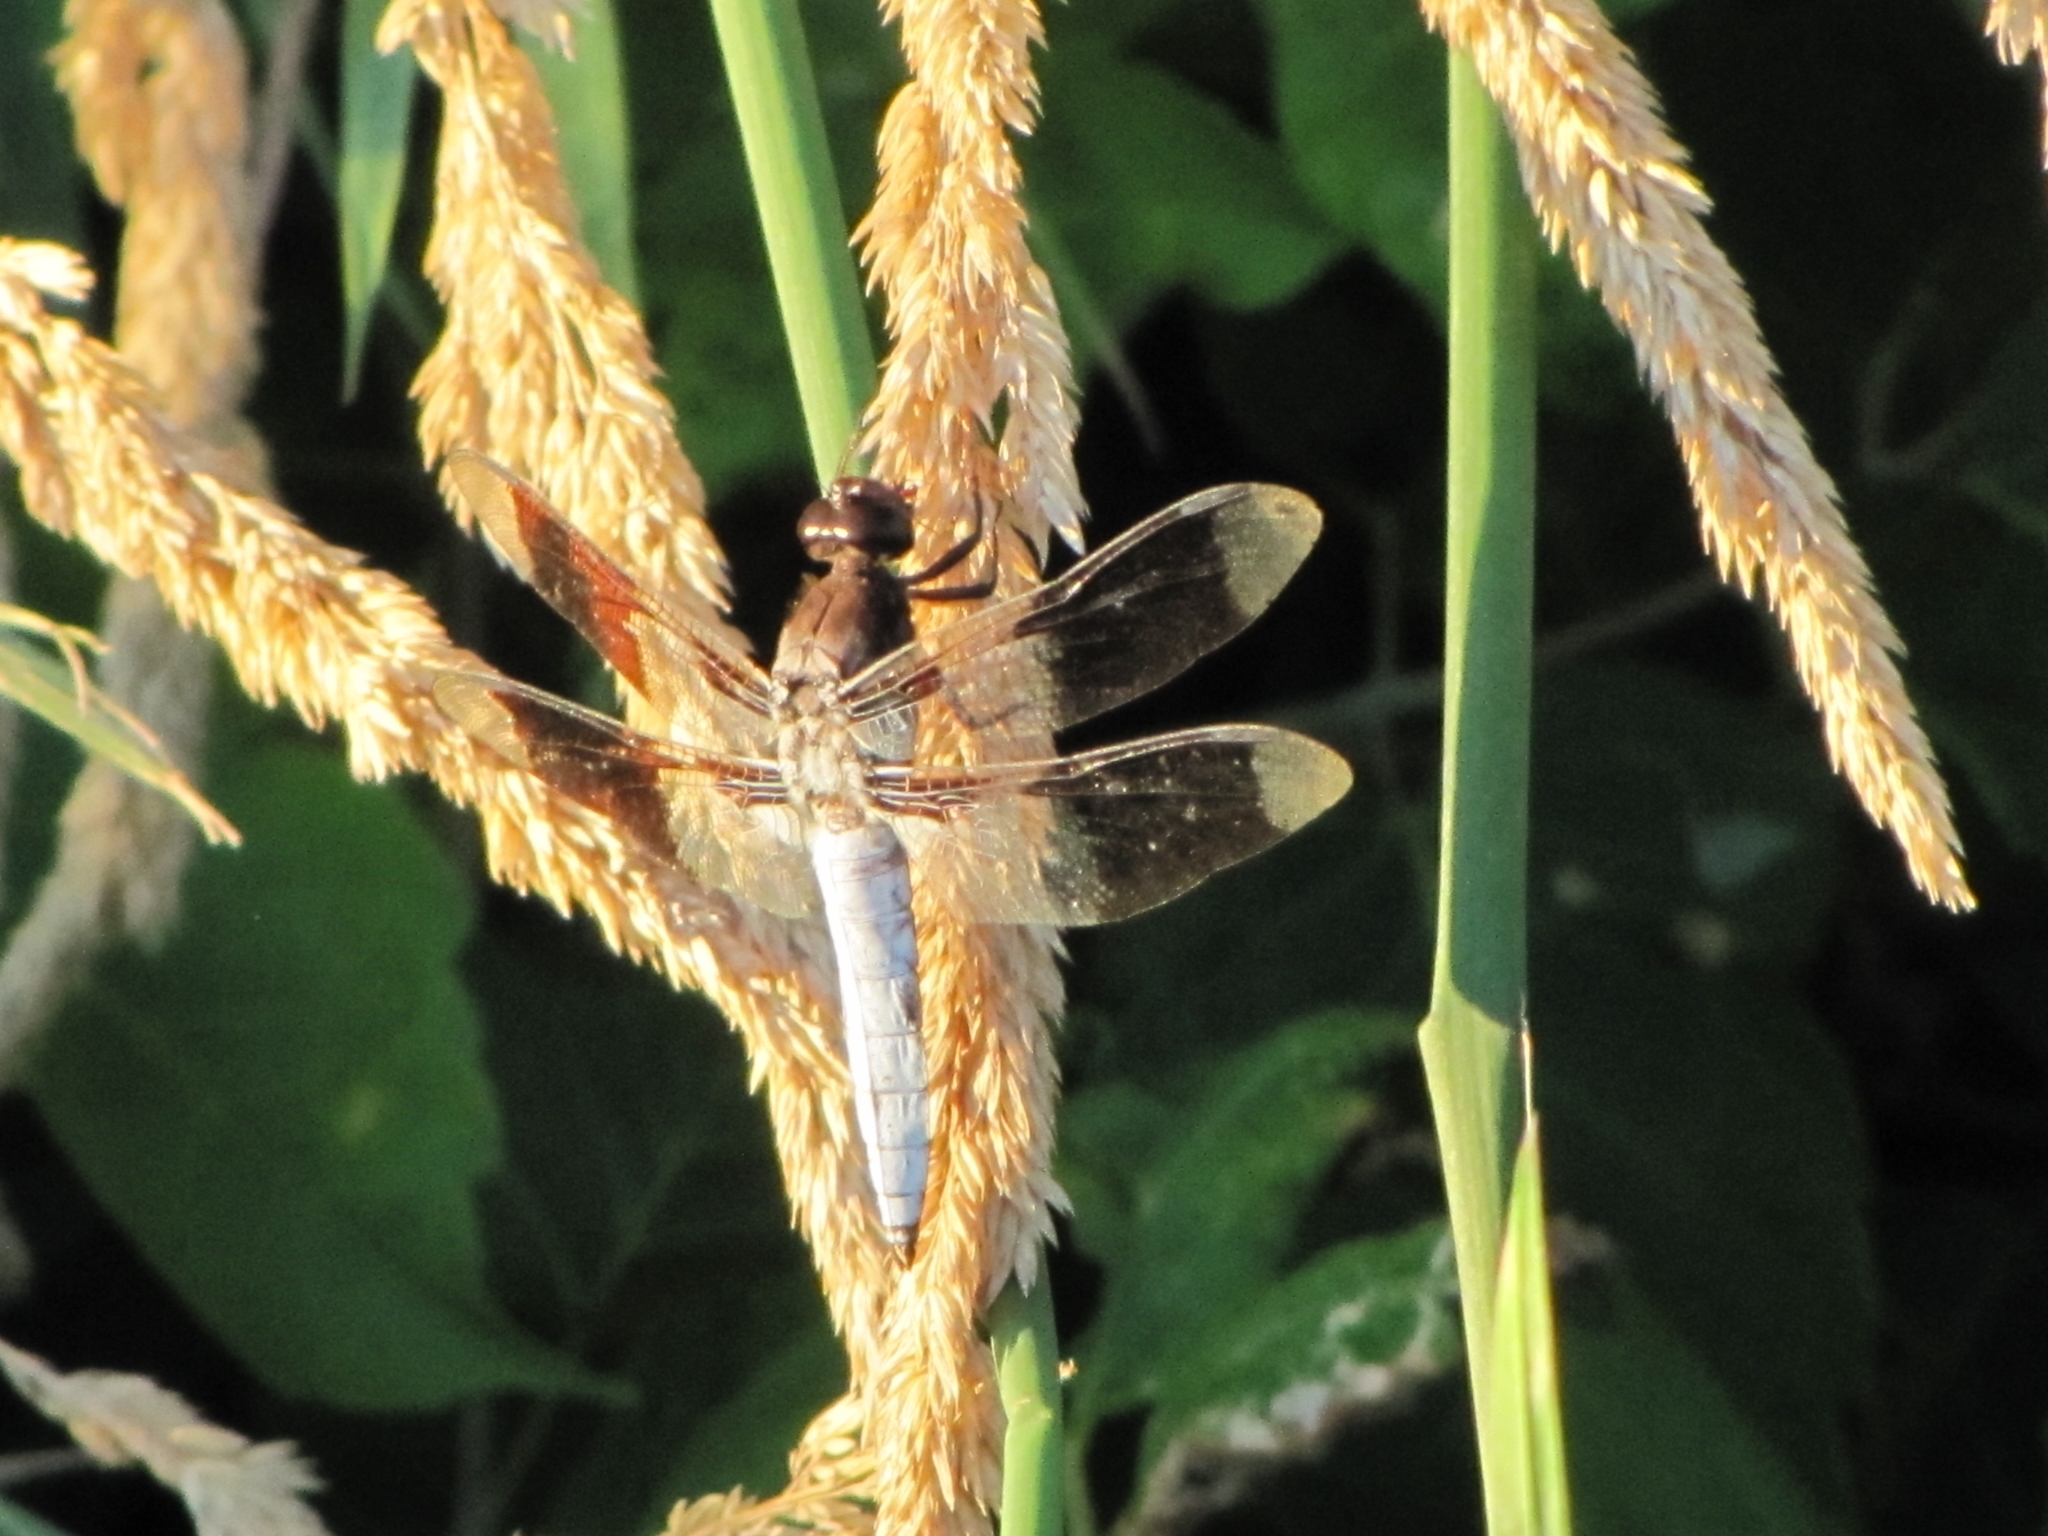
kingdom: Animalia
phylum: Arthropoda
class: Insecta
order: Odonata
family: Libellulidae
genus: Plathemis
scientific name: Plathemis lydia
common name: Common whitetail
